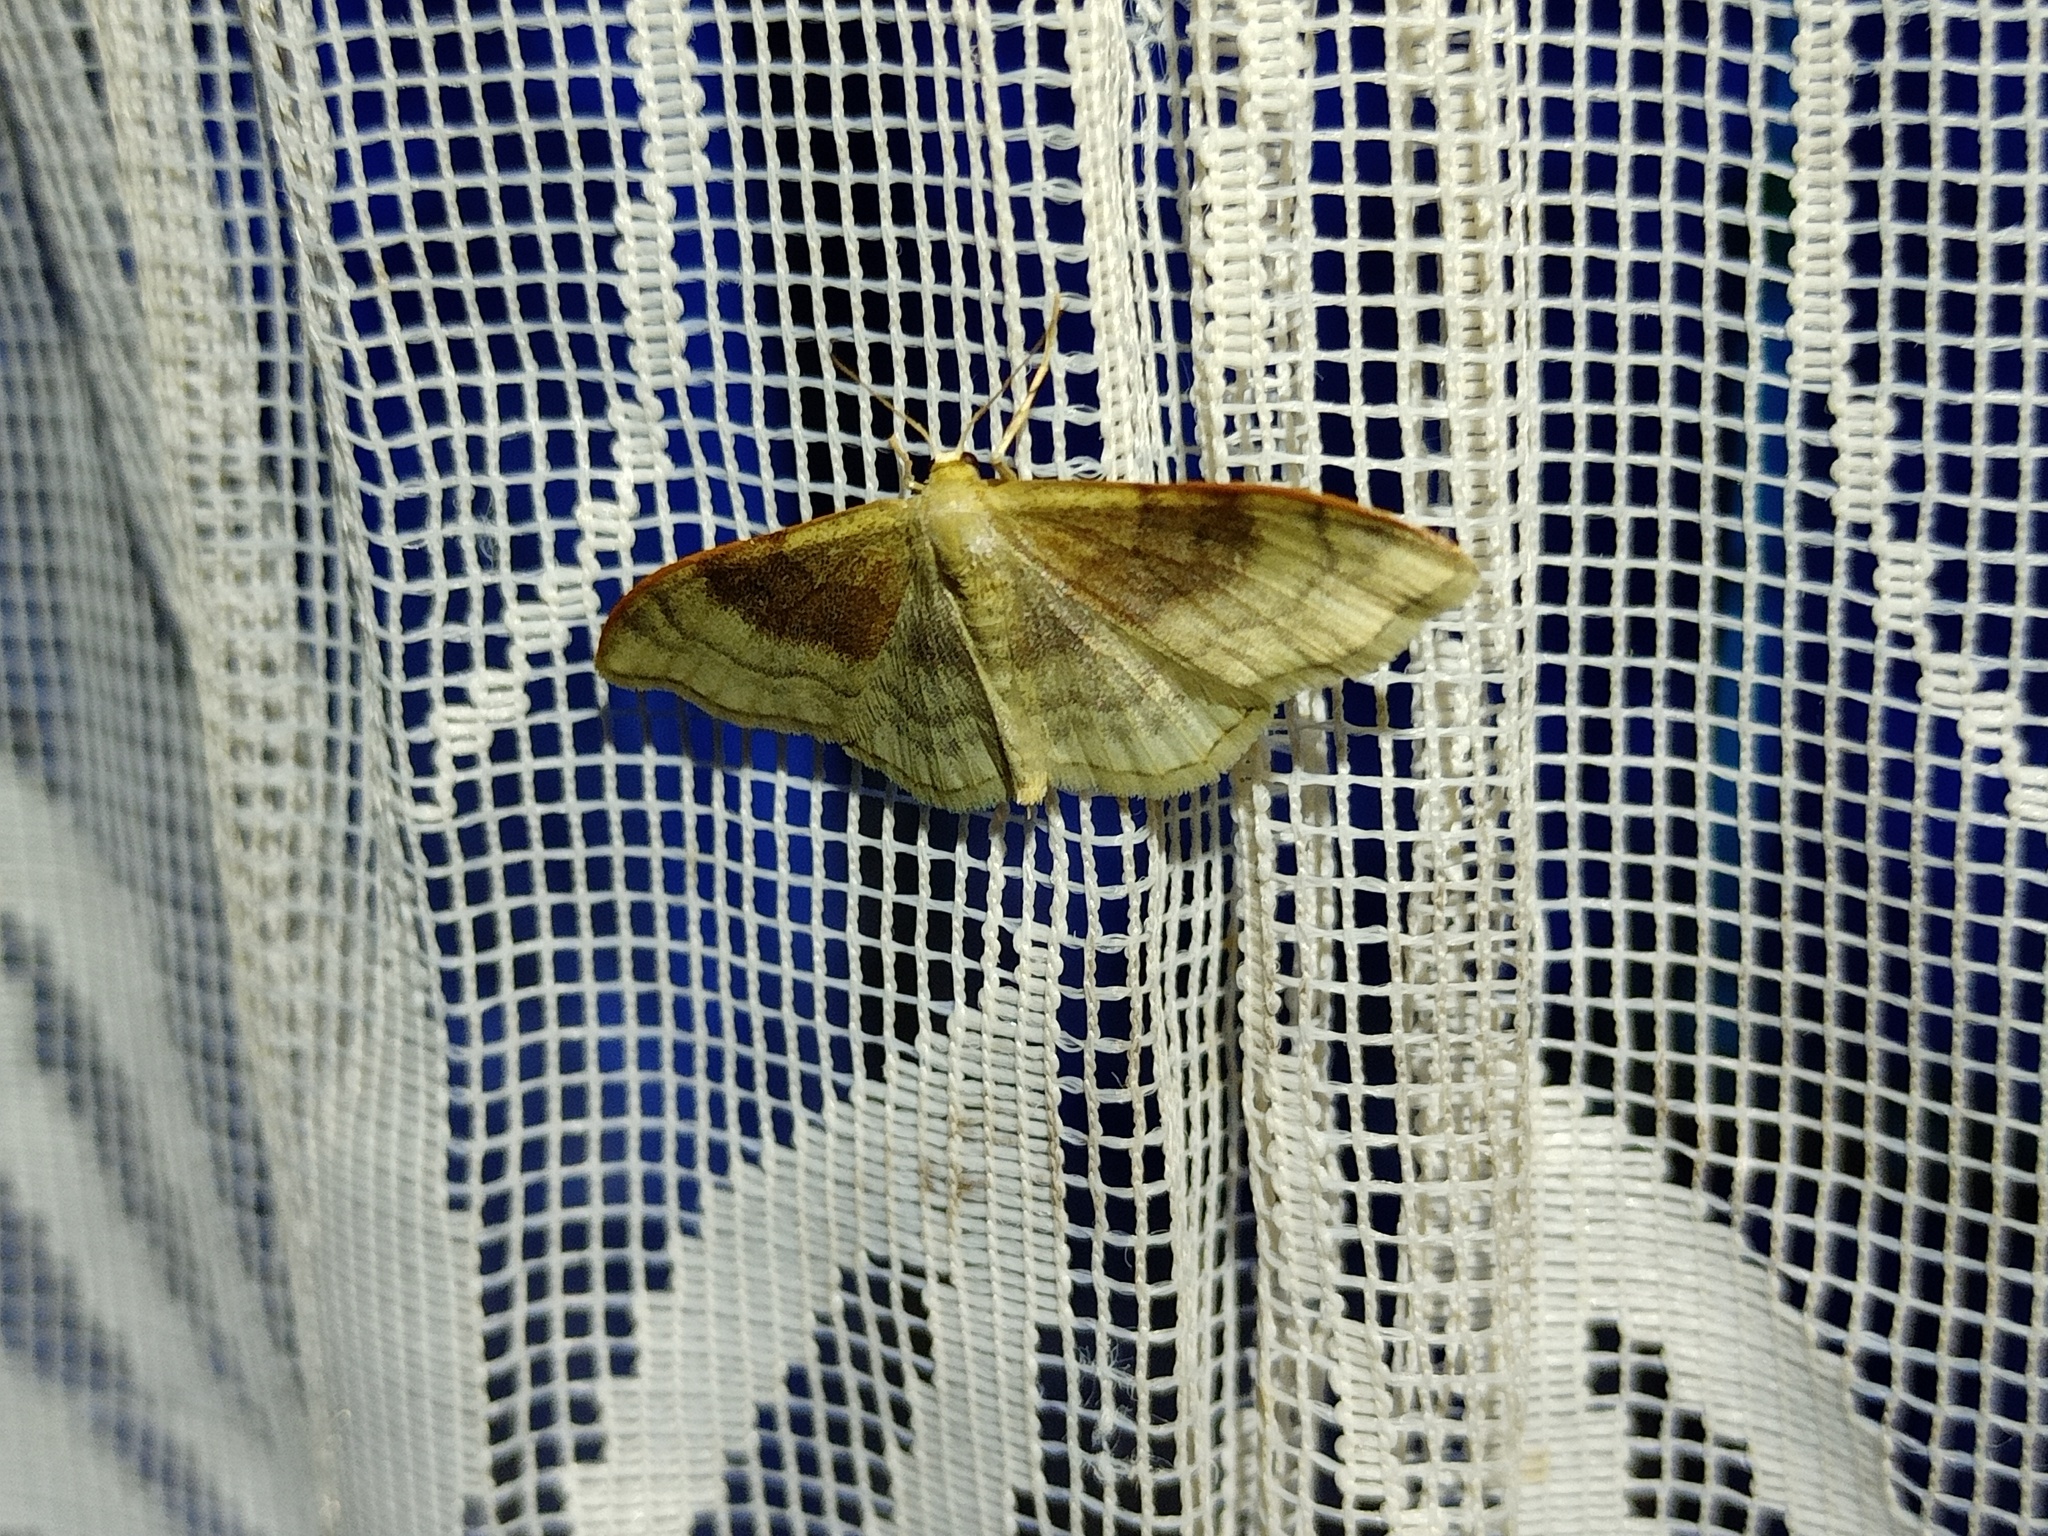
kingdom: Animalia
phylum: Arthropoda
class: Insecta
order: Lepidoptera
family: Geometridae
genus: Idaea
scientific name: Idaea degeneraria
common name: Portland ribbon wave
